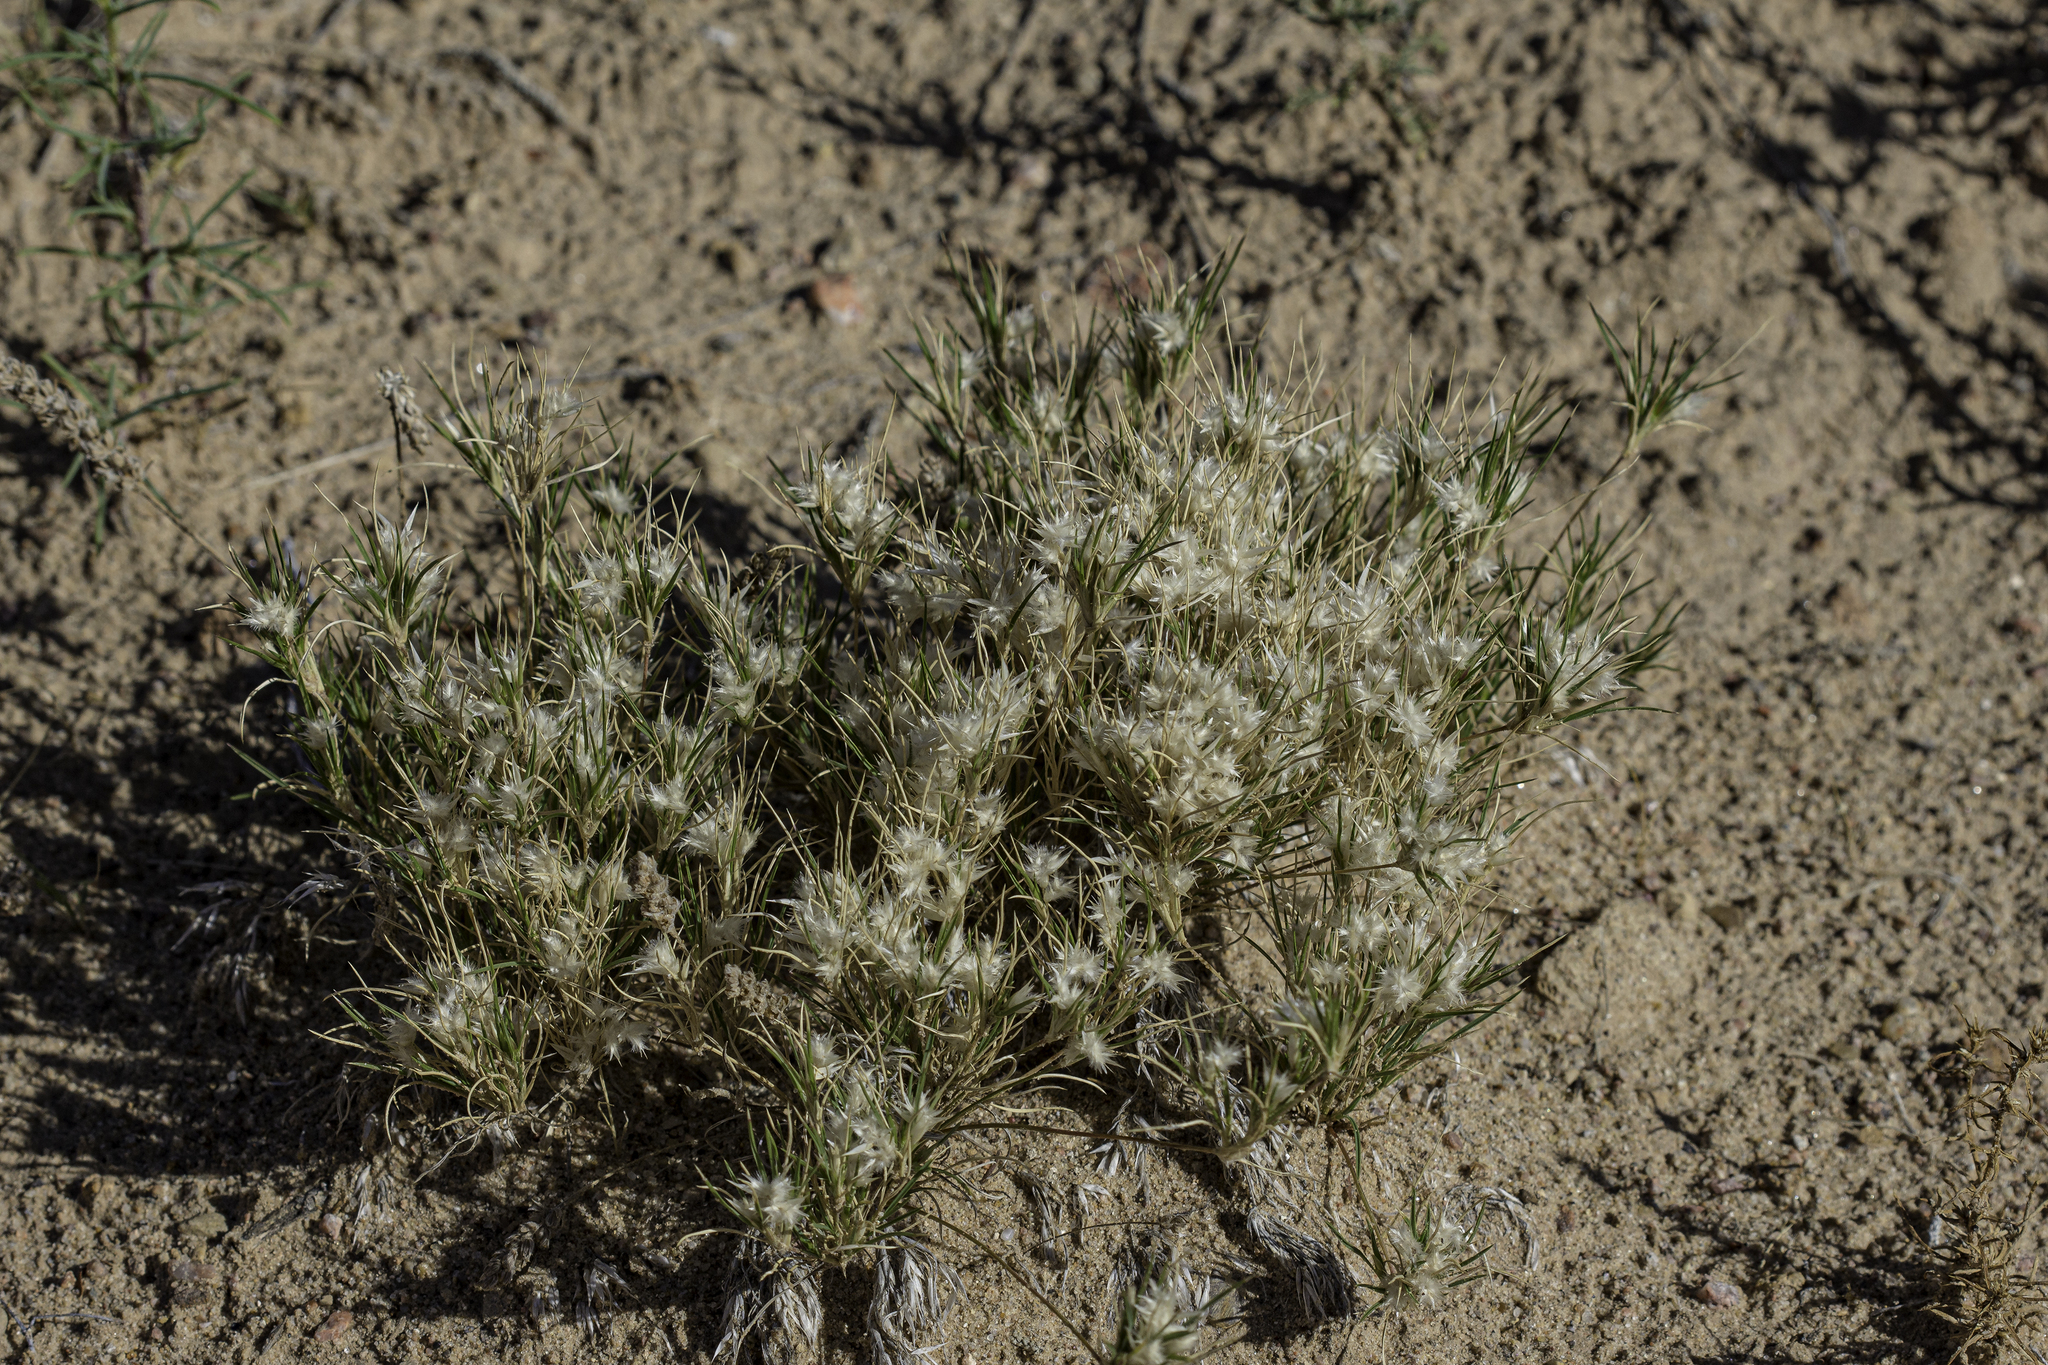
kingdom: Plantae
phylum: Tracheophyta
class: Liliopsida
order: Poales
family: Poaceae
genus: Dasyochloa
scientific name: Dasyochloa pulchella
